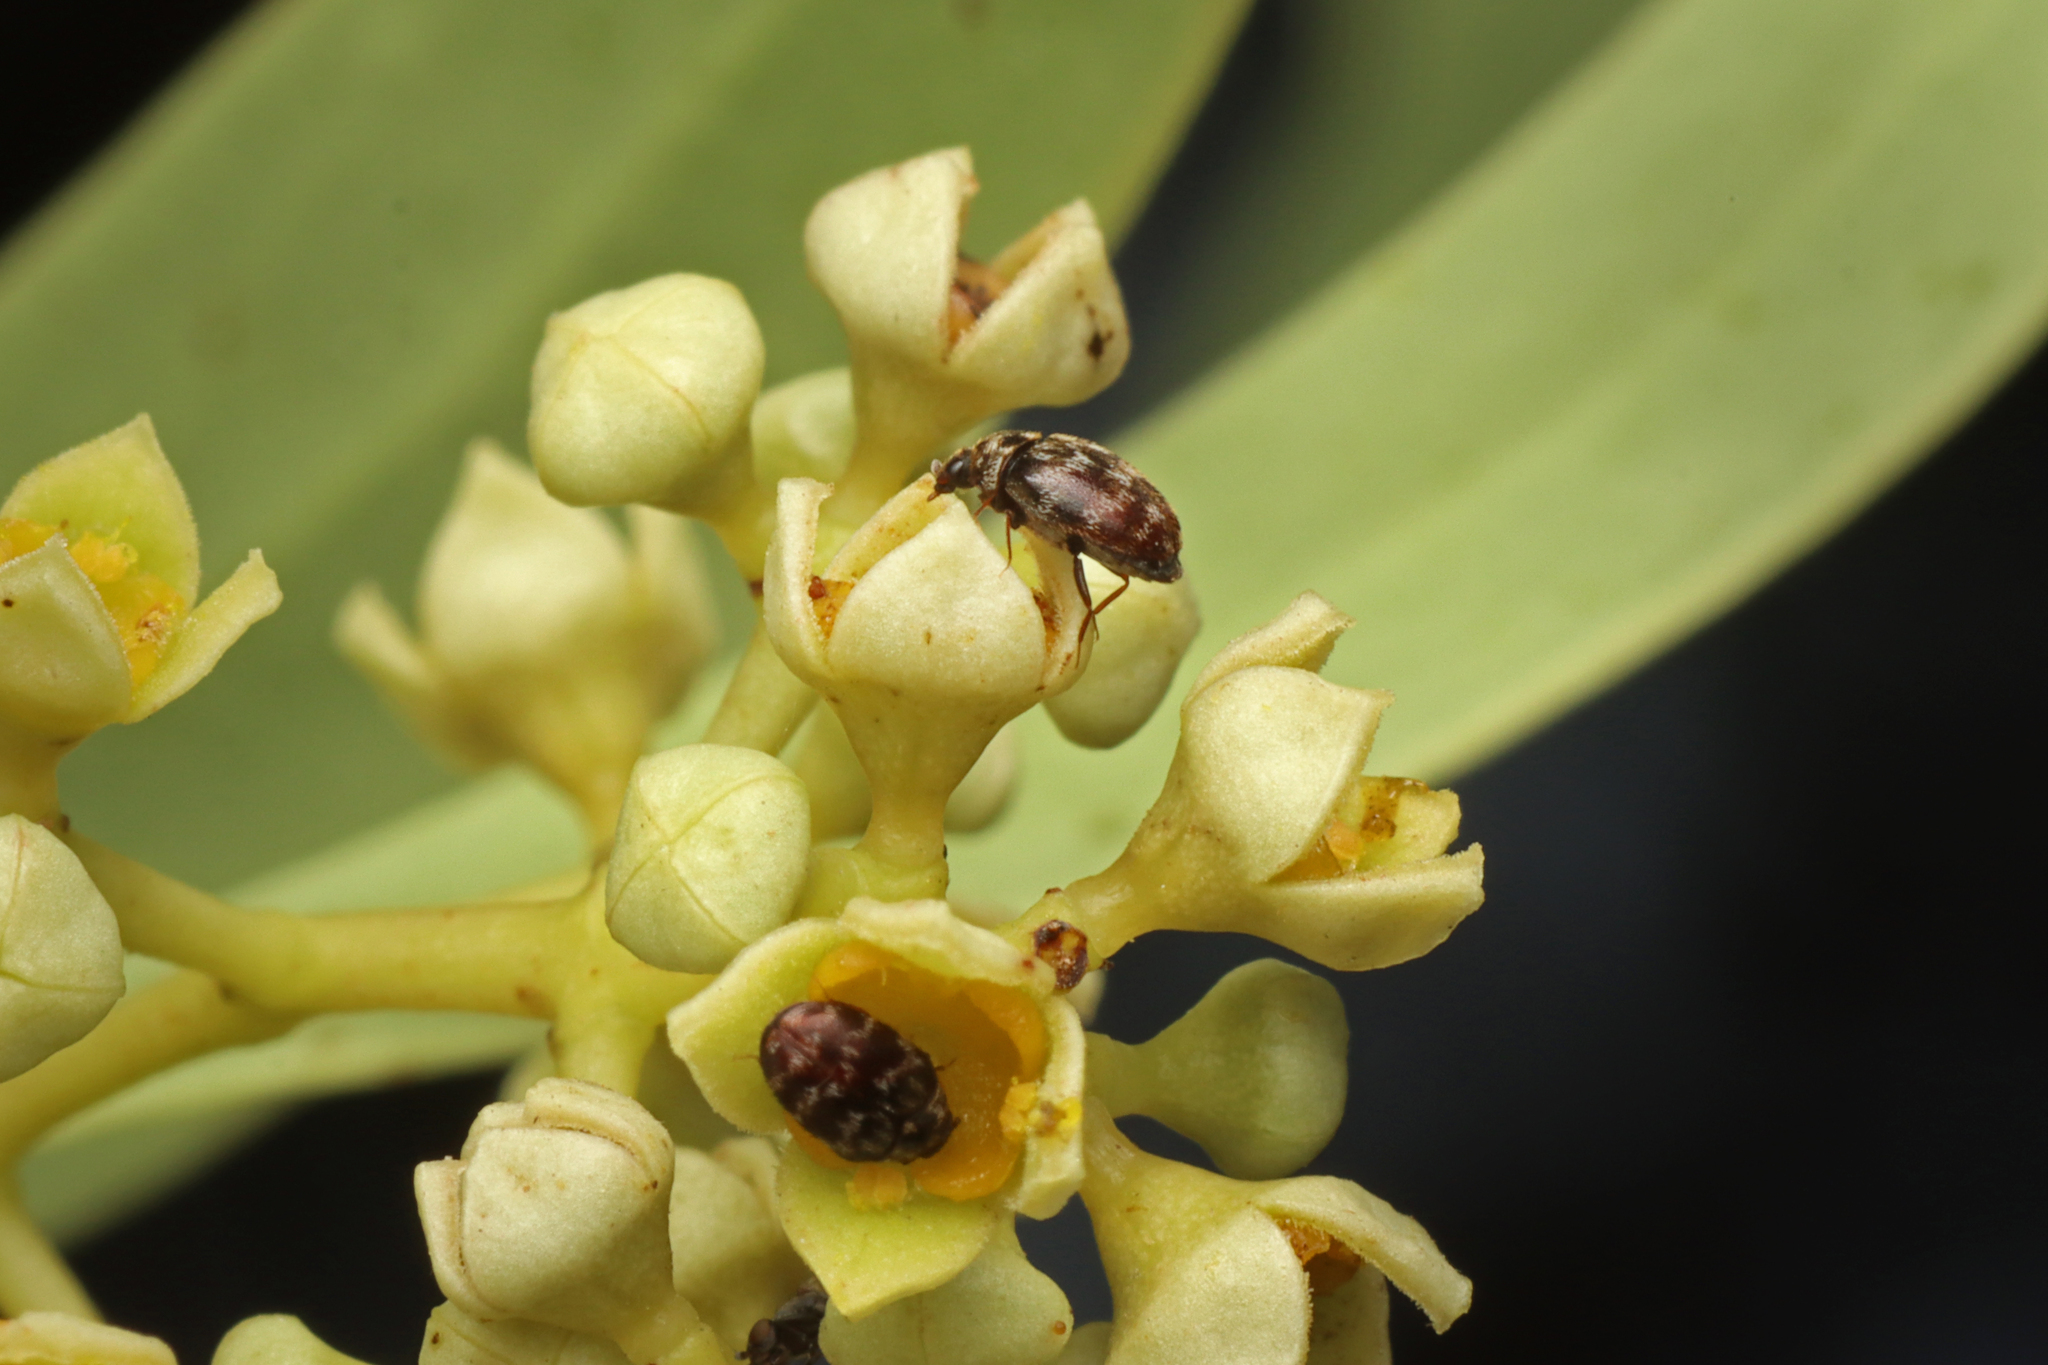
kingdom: Animalia
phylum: Arthropoda
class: Insecta
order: Coleoptera
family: Dermestidae
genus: Anthrenus
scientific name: Anthrenus verbasci
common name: Varied carpet beetle
